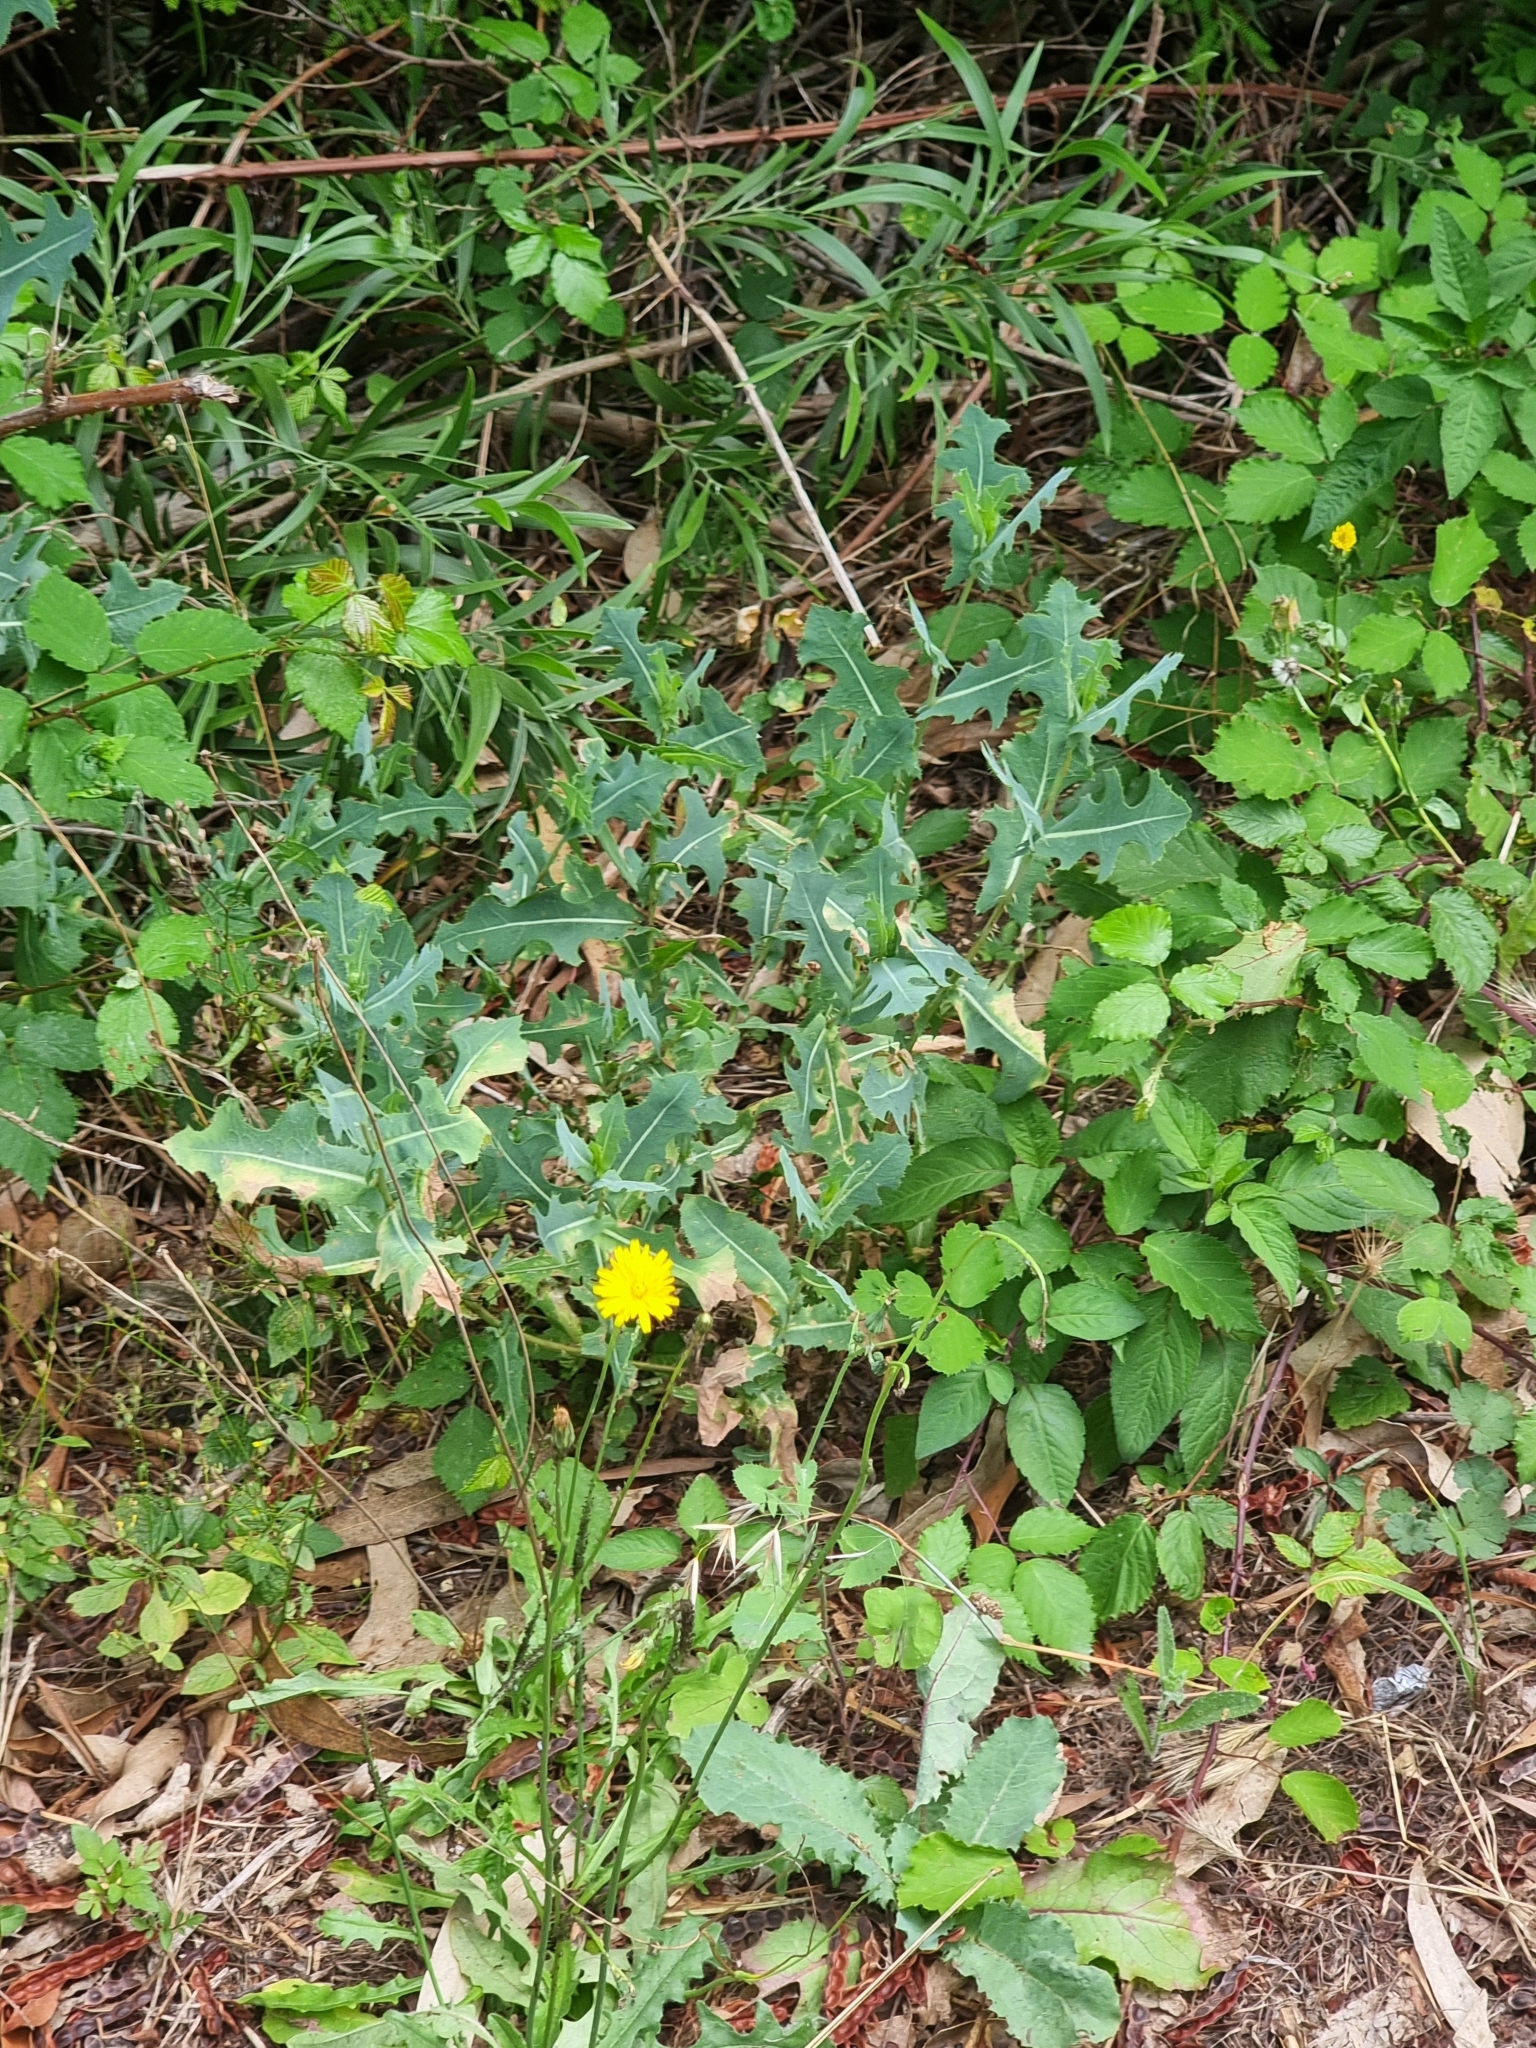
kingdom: Plantae
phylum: Tracheophyta
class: Magnoliopsida
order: Asterales
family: Asteraceae
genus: Lactuca
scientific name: Lactuca serriola
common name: Prickly lettuce
